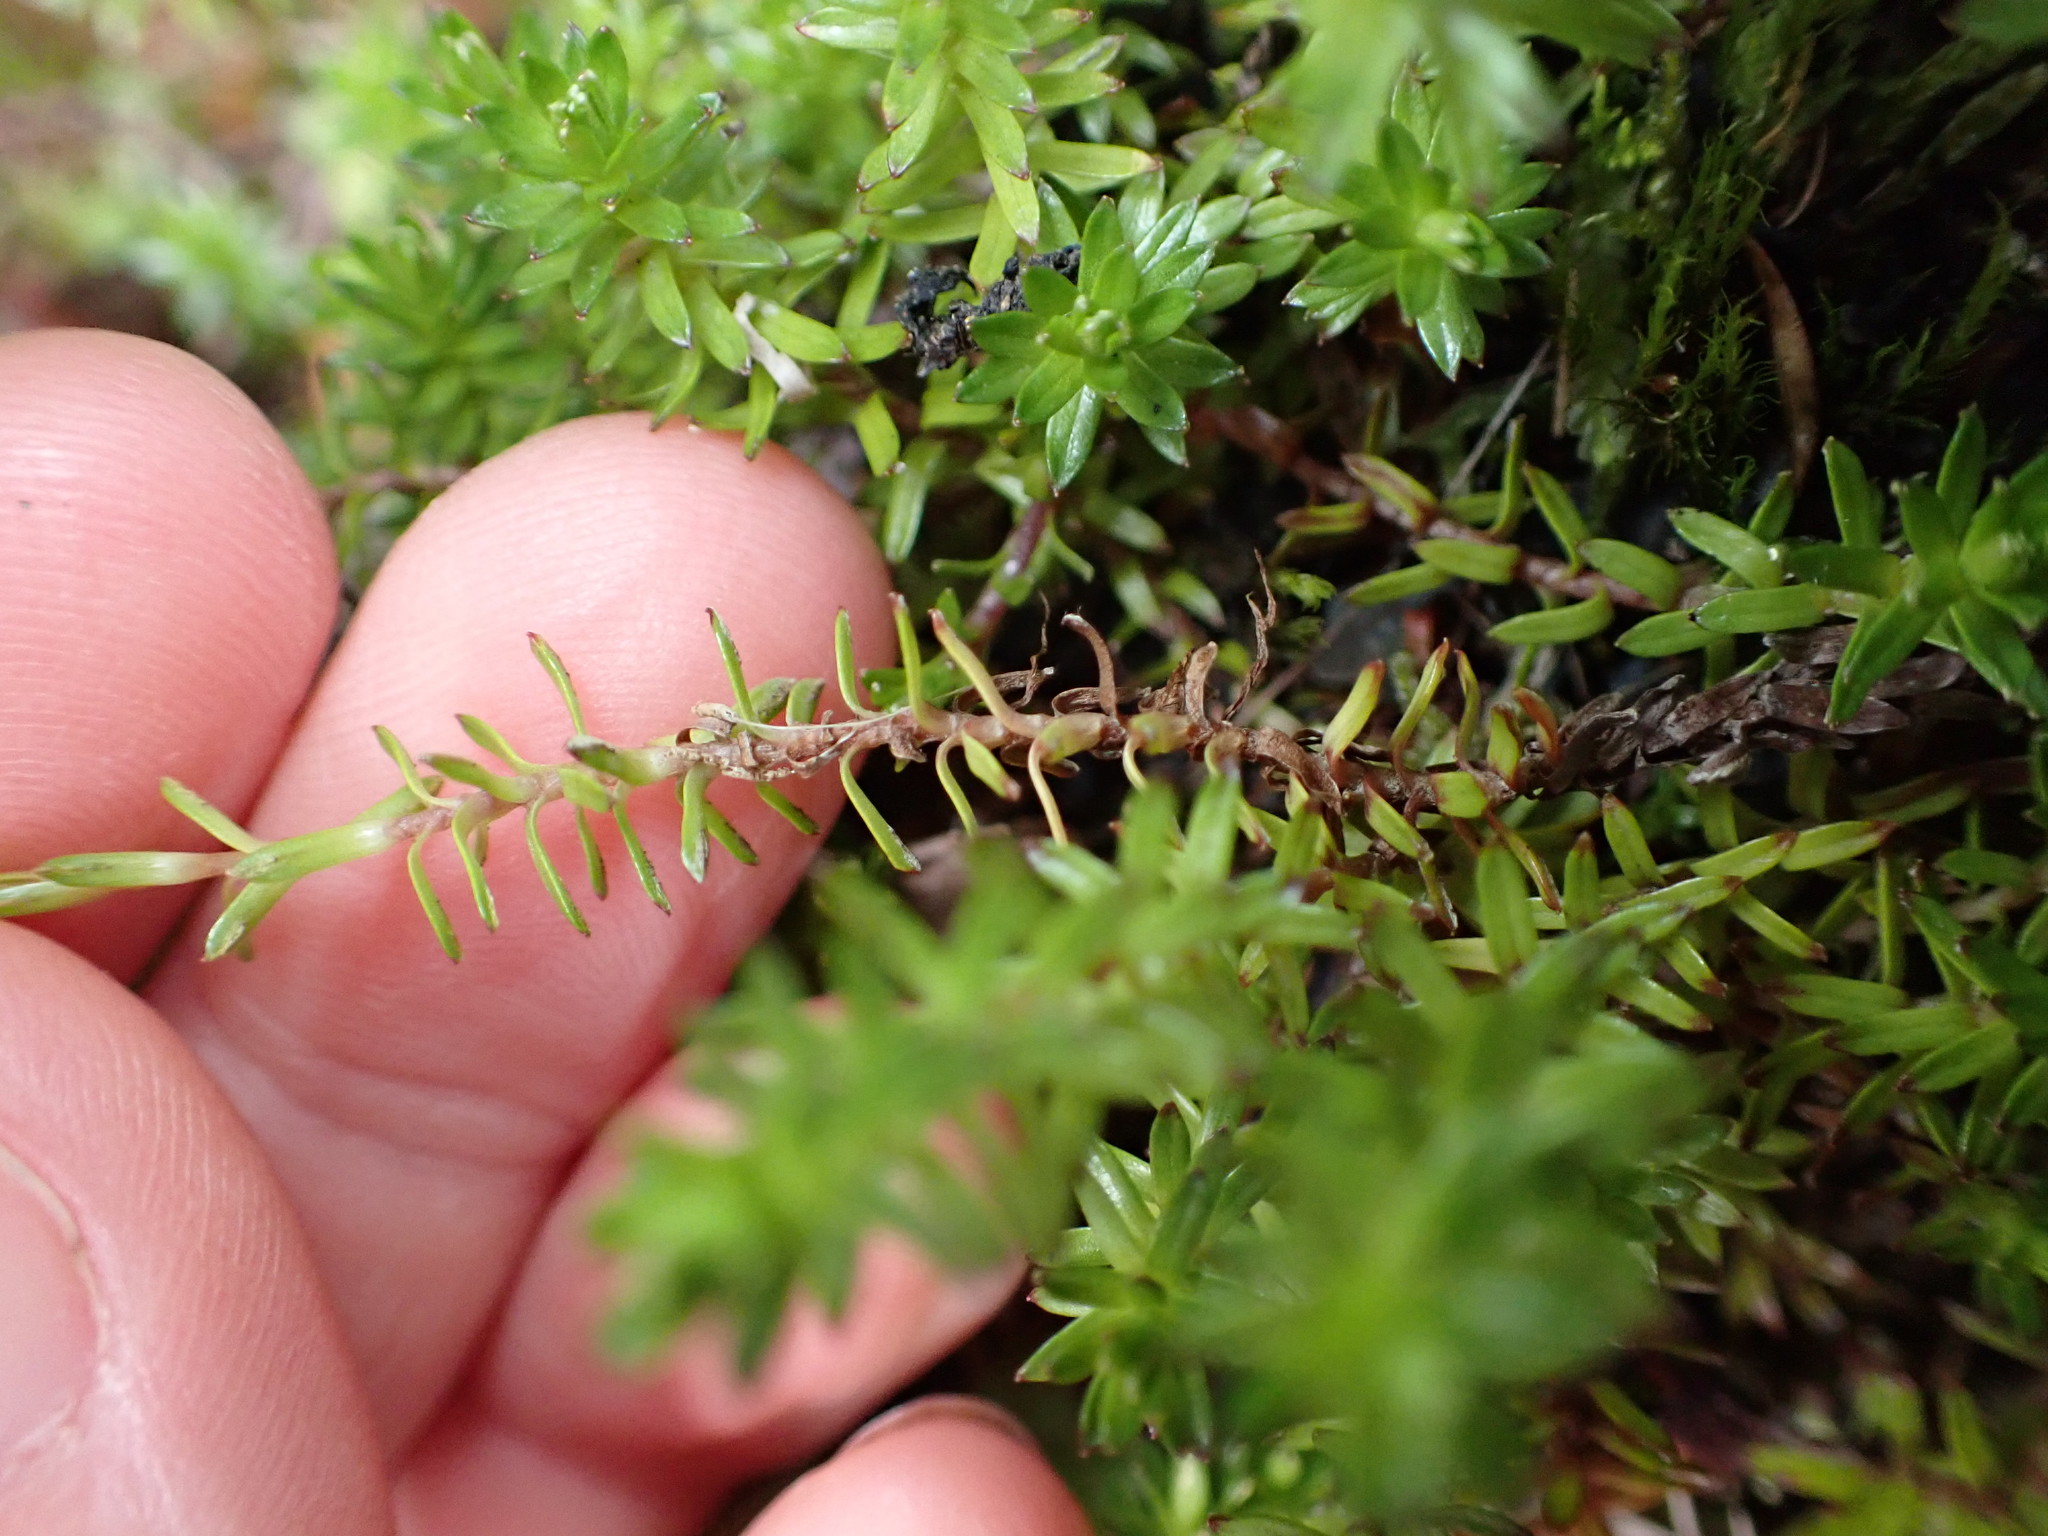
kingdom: Plantae
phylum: Tracheophyta
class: Magnoliopsida
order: Asterales
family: Asteraceae
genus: Raoulia
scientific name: Raoulia glabra
